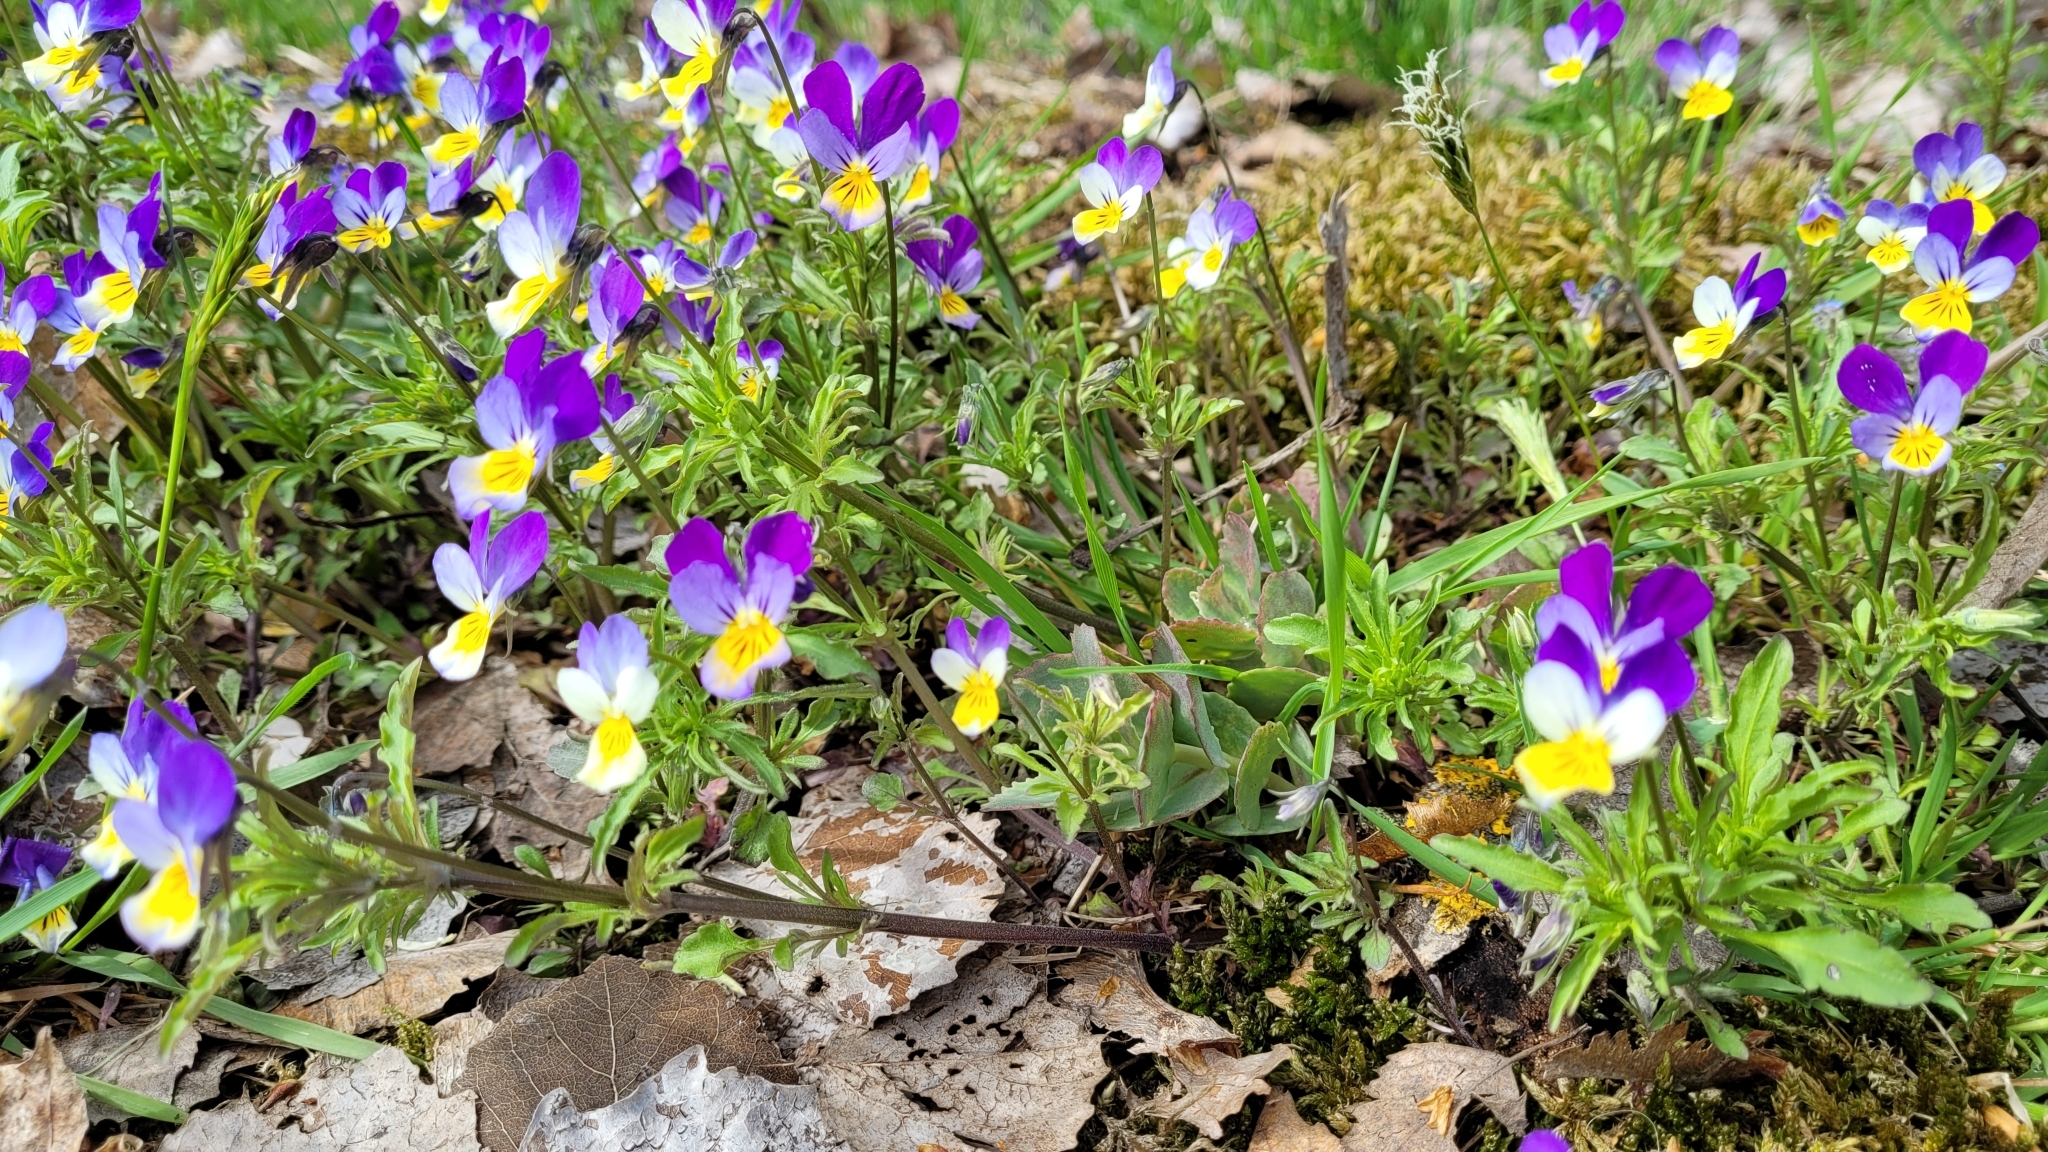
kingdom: Plantae
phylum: Tracheophyta
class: Magnoliopsida
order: Malpighiales
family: Violaceae
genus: Viola
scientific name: Viola tricolor
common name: Pansy
